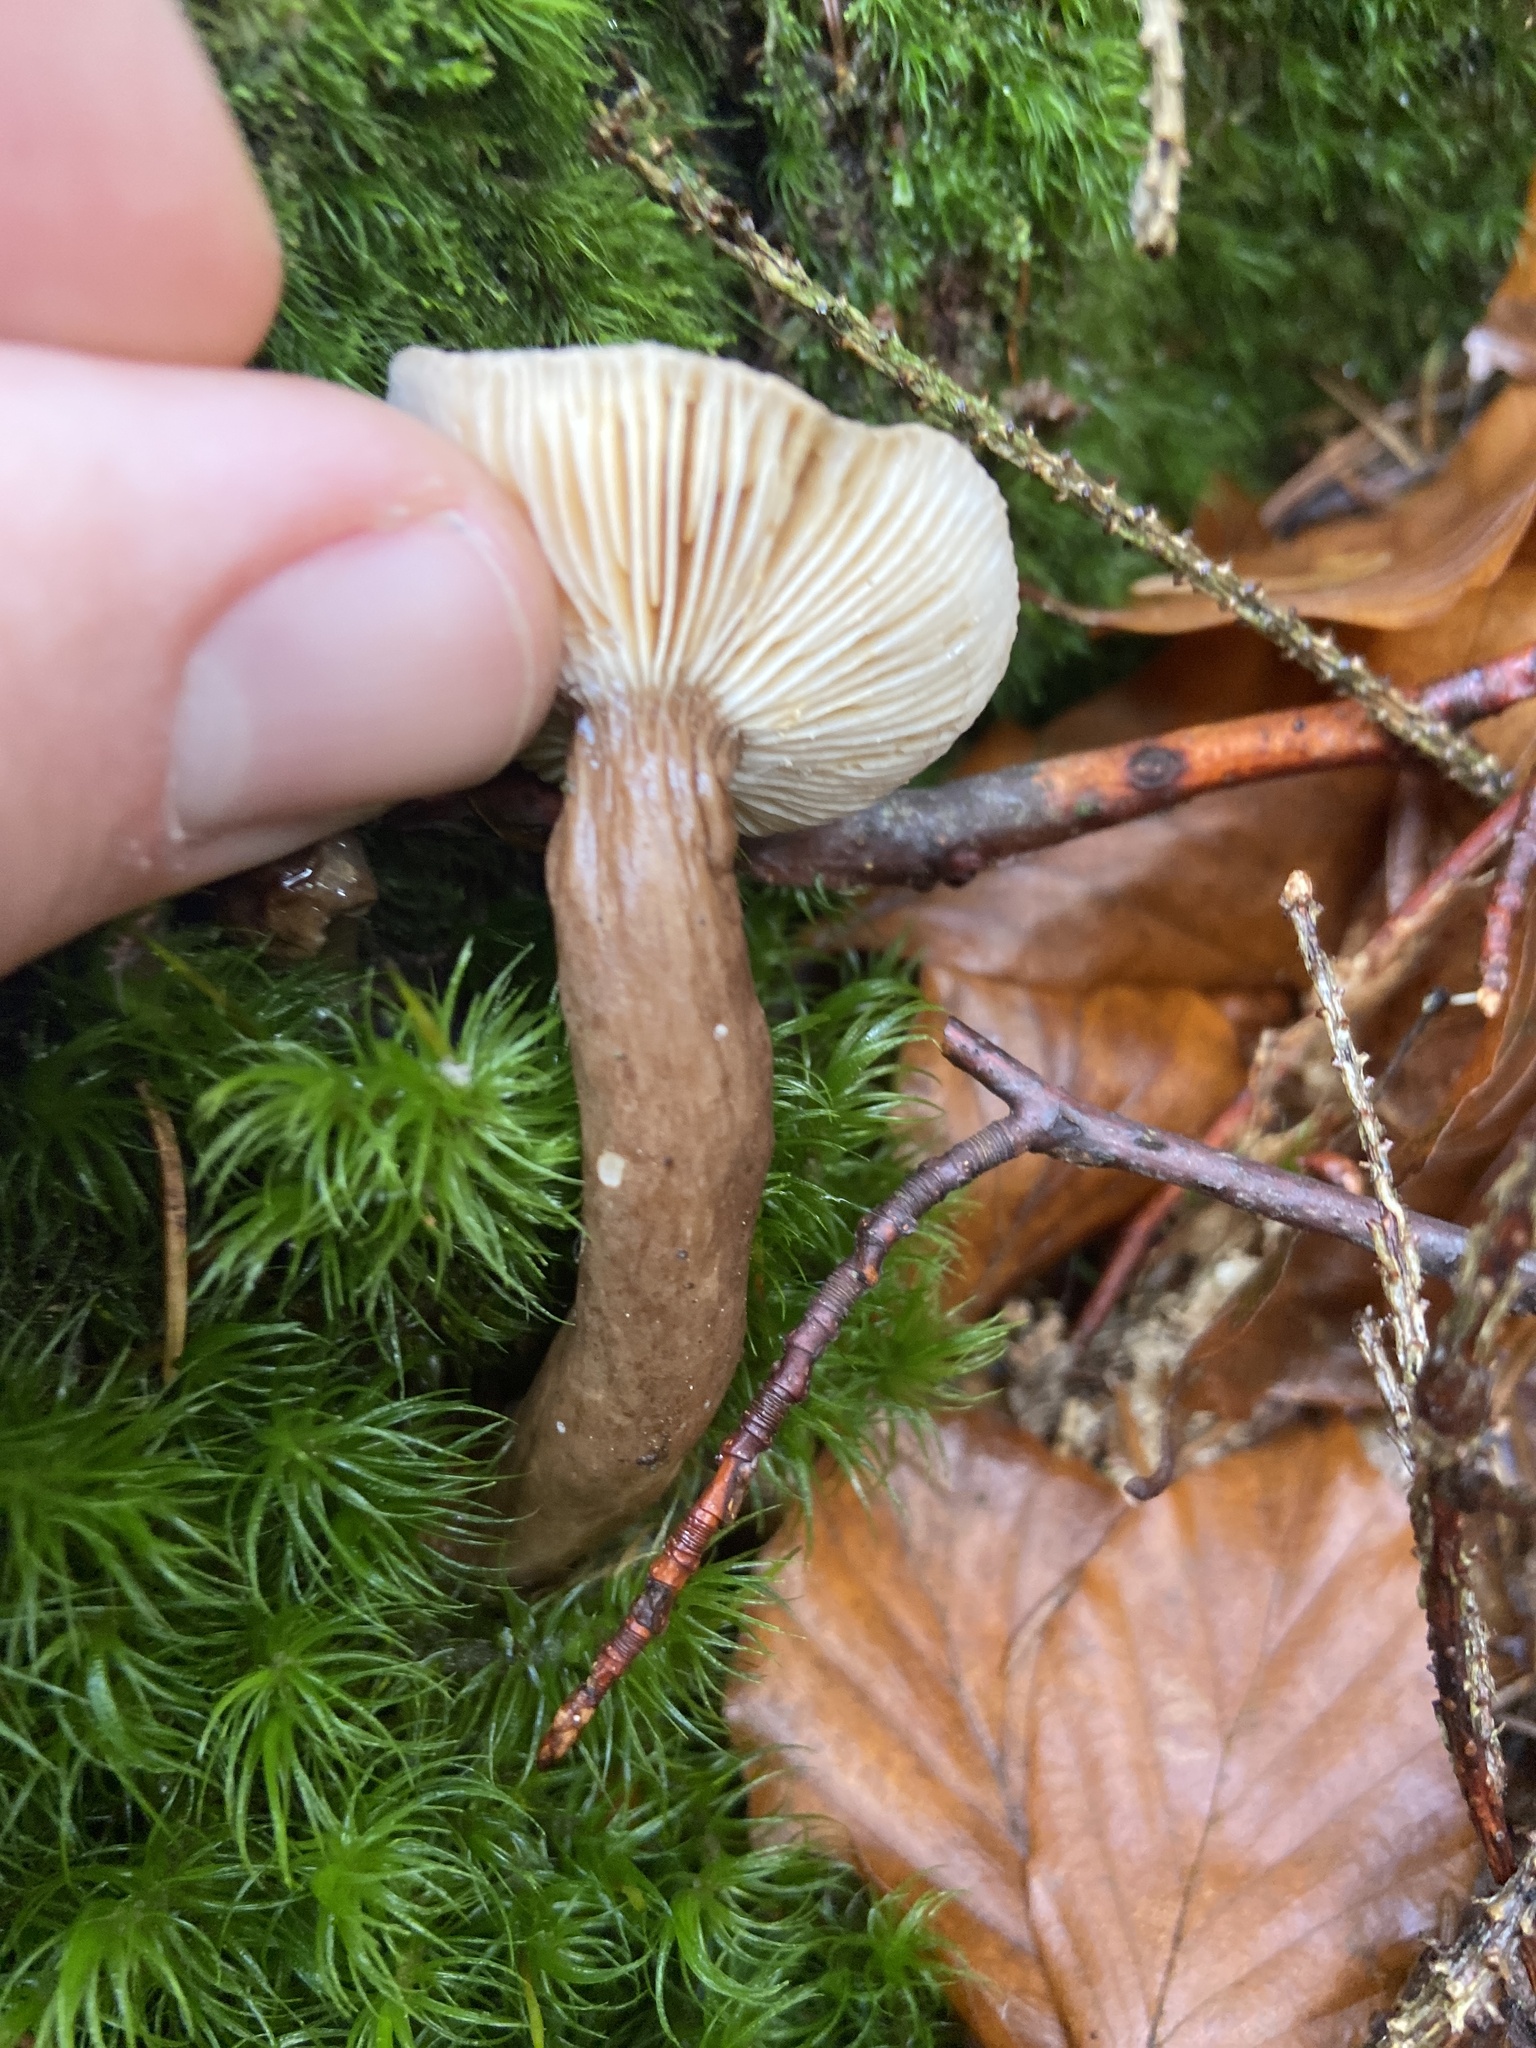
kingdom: Fungi
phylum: Basidiomycota
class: Agaricomycetes
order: Russulales
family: Russulaceae
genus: Lactarius
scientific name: Lactarius lignyotus
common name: Velvet milkcap
